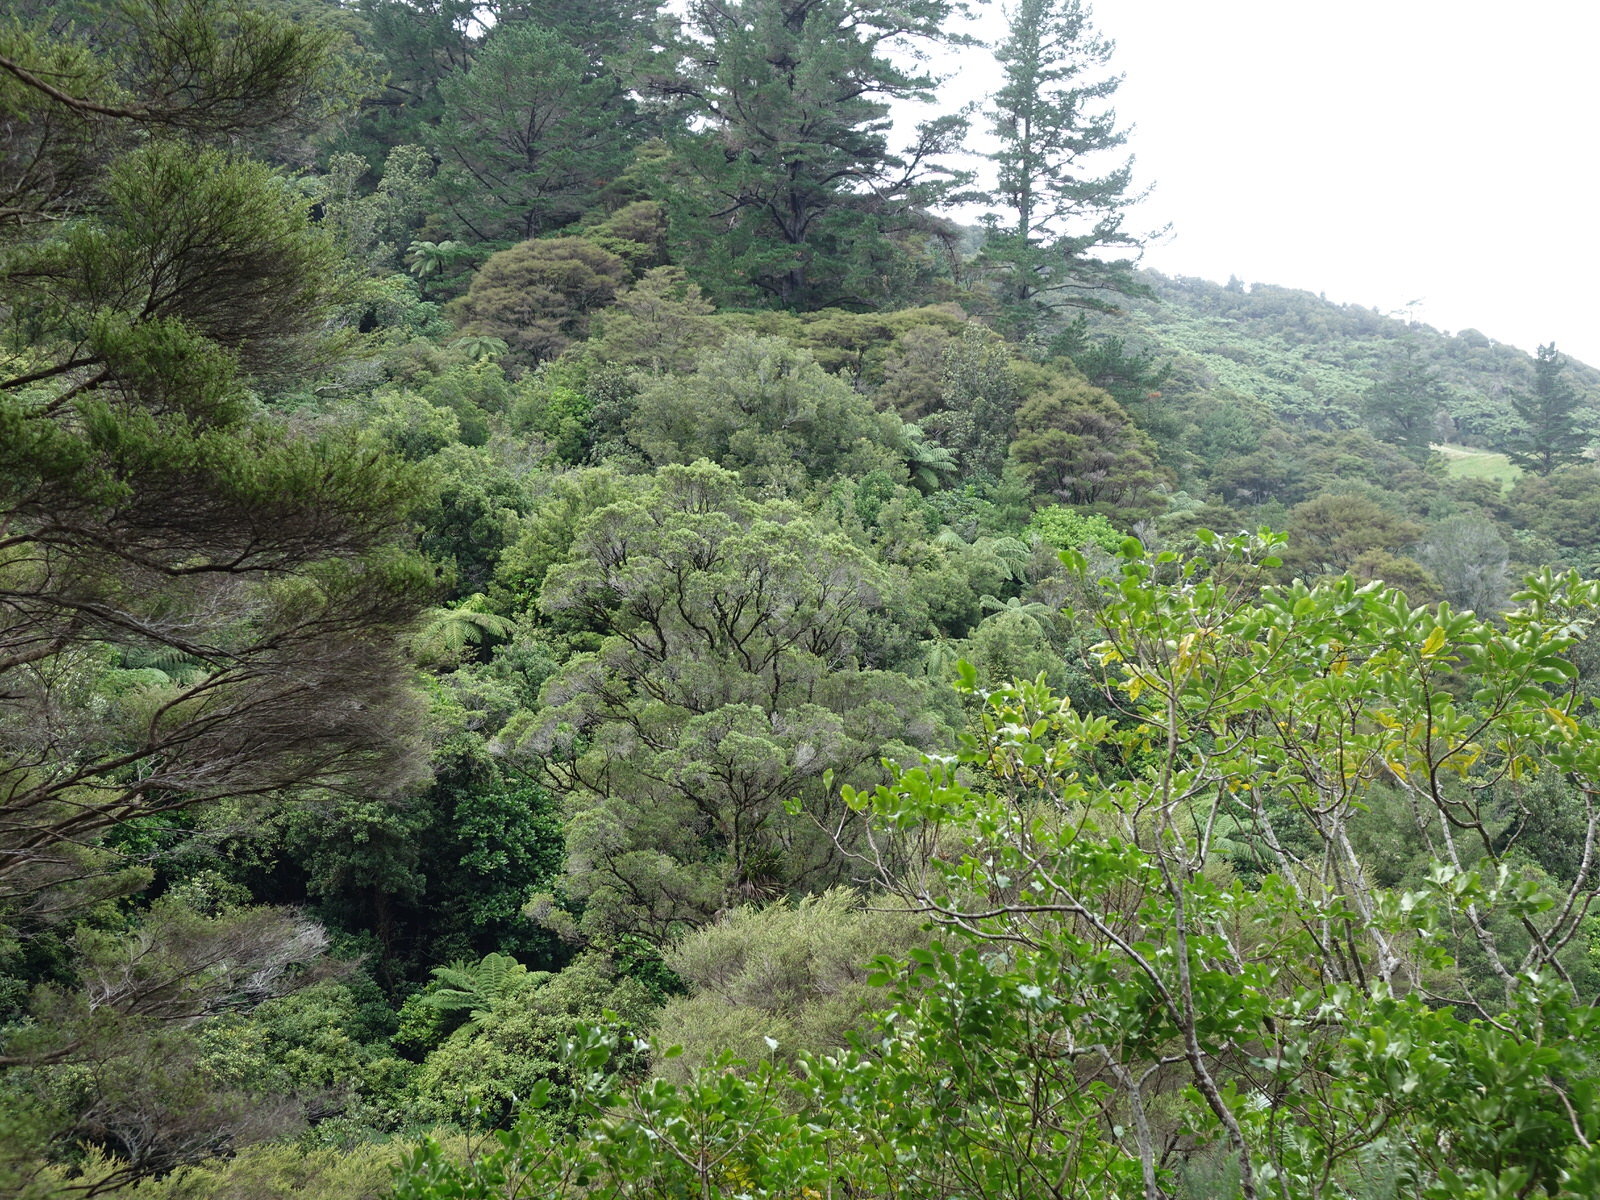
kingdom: Plantae
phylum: Tracheophyta
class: Magnoliopsida
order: Myrtales
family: Myrtaceae
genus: Metrosideros
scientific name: Metrosideros robusta
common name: Northern rata
